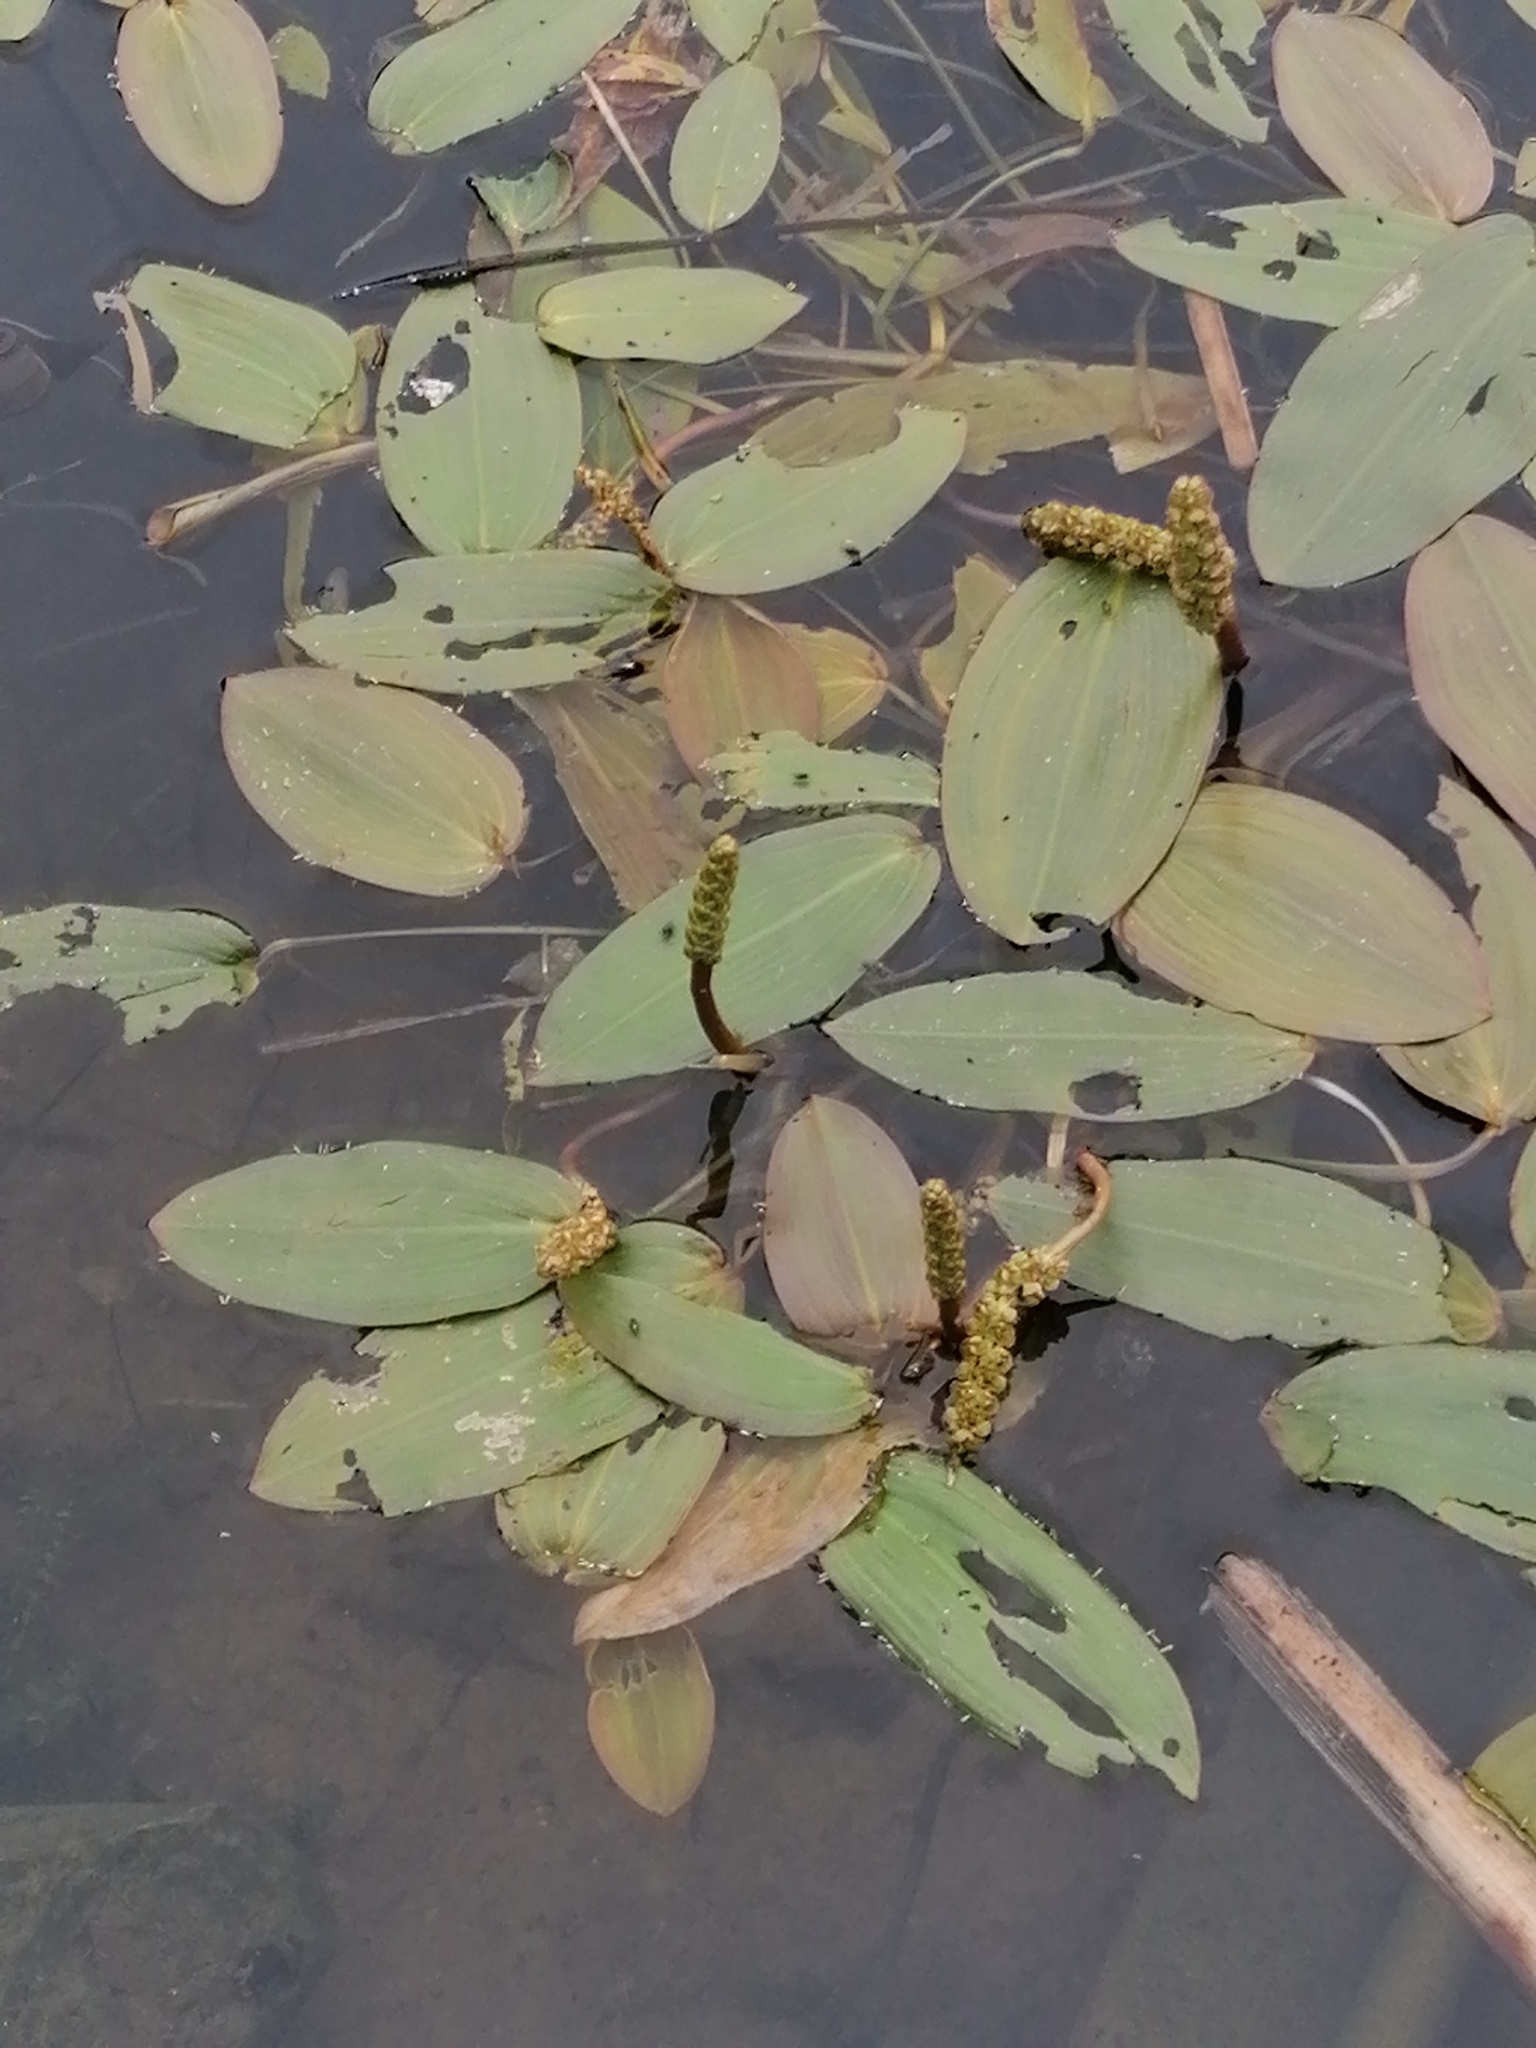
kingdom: Plantae
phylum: Tracheophyta
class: Liliopsida
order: Alismatales
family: Potamogetonaceae
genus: Potamogeton
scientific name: Potamogeton natans
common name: Broad-leaved pondweed
